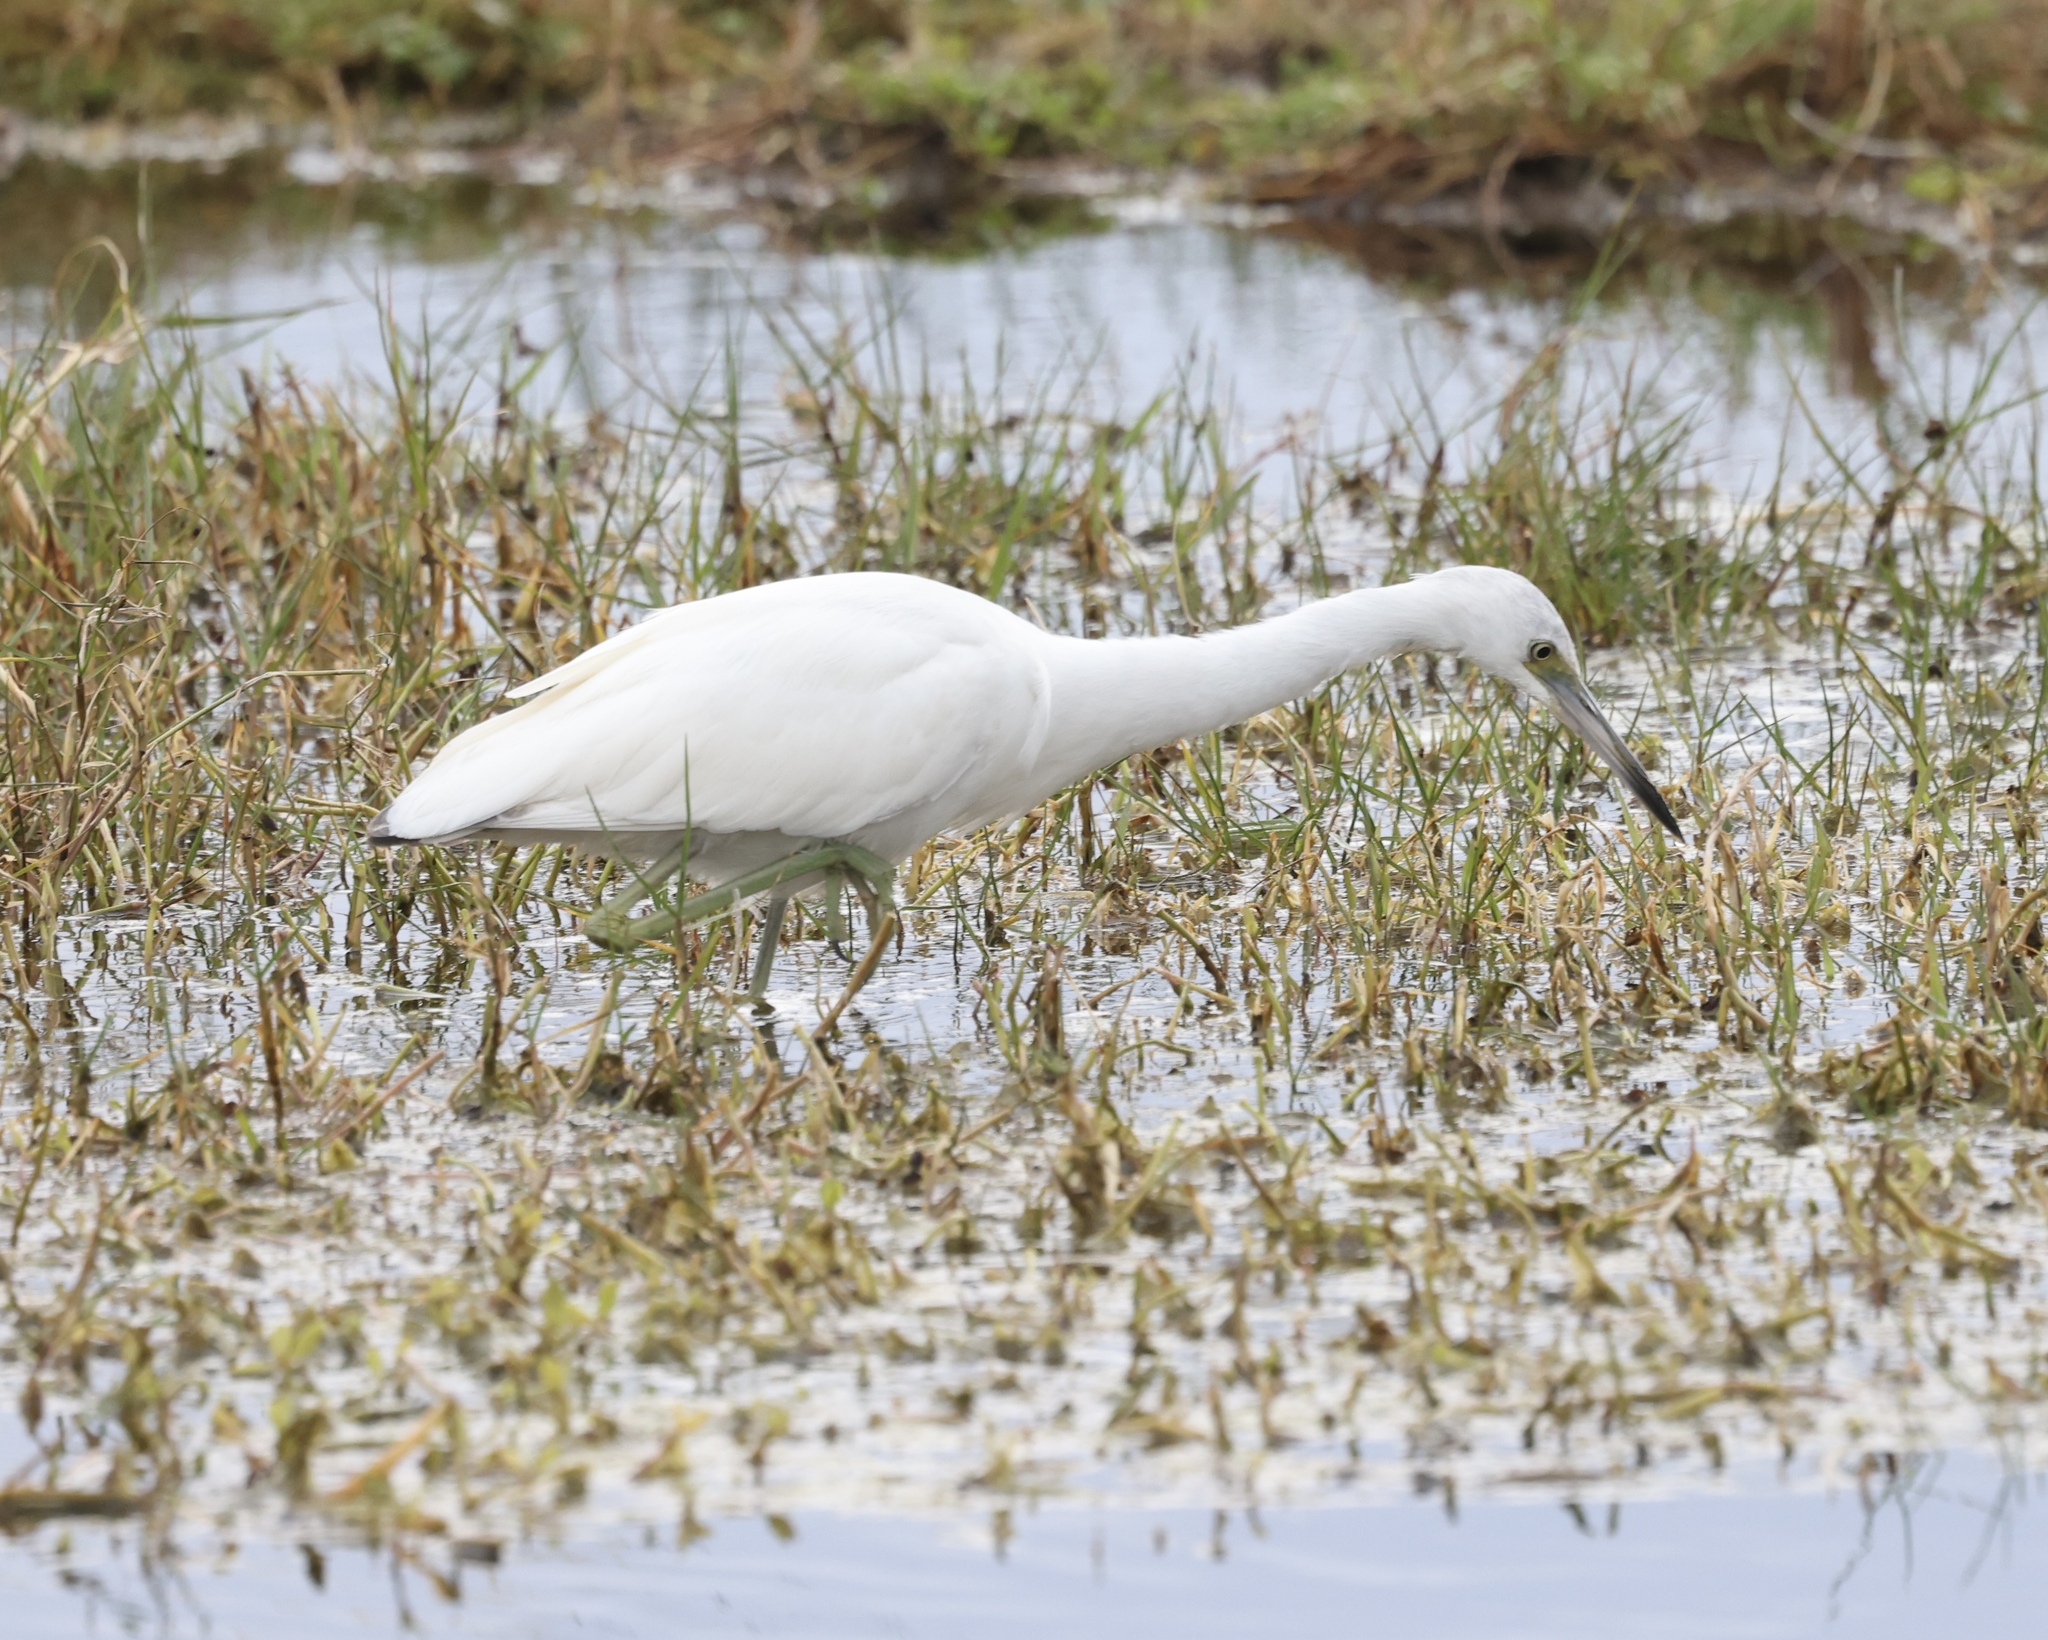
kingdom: Animalia
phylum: Chordata
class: Aves
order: Pelecaniformes
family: Ardeidae
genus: Egretta
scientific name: Egretta caerulea
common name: Little blue heron
